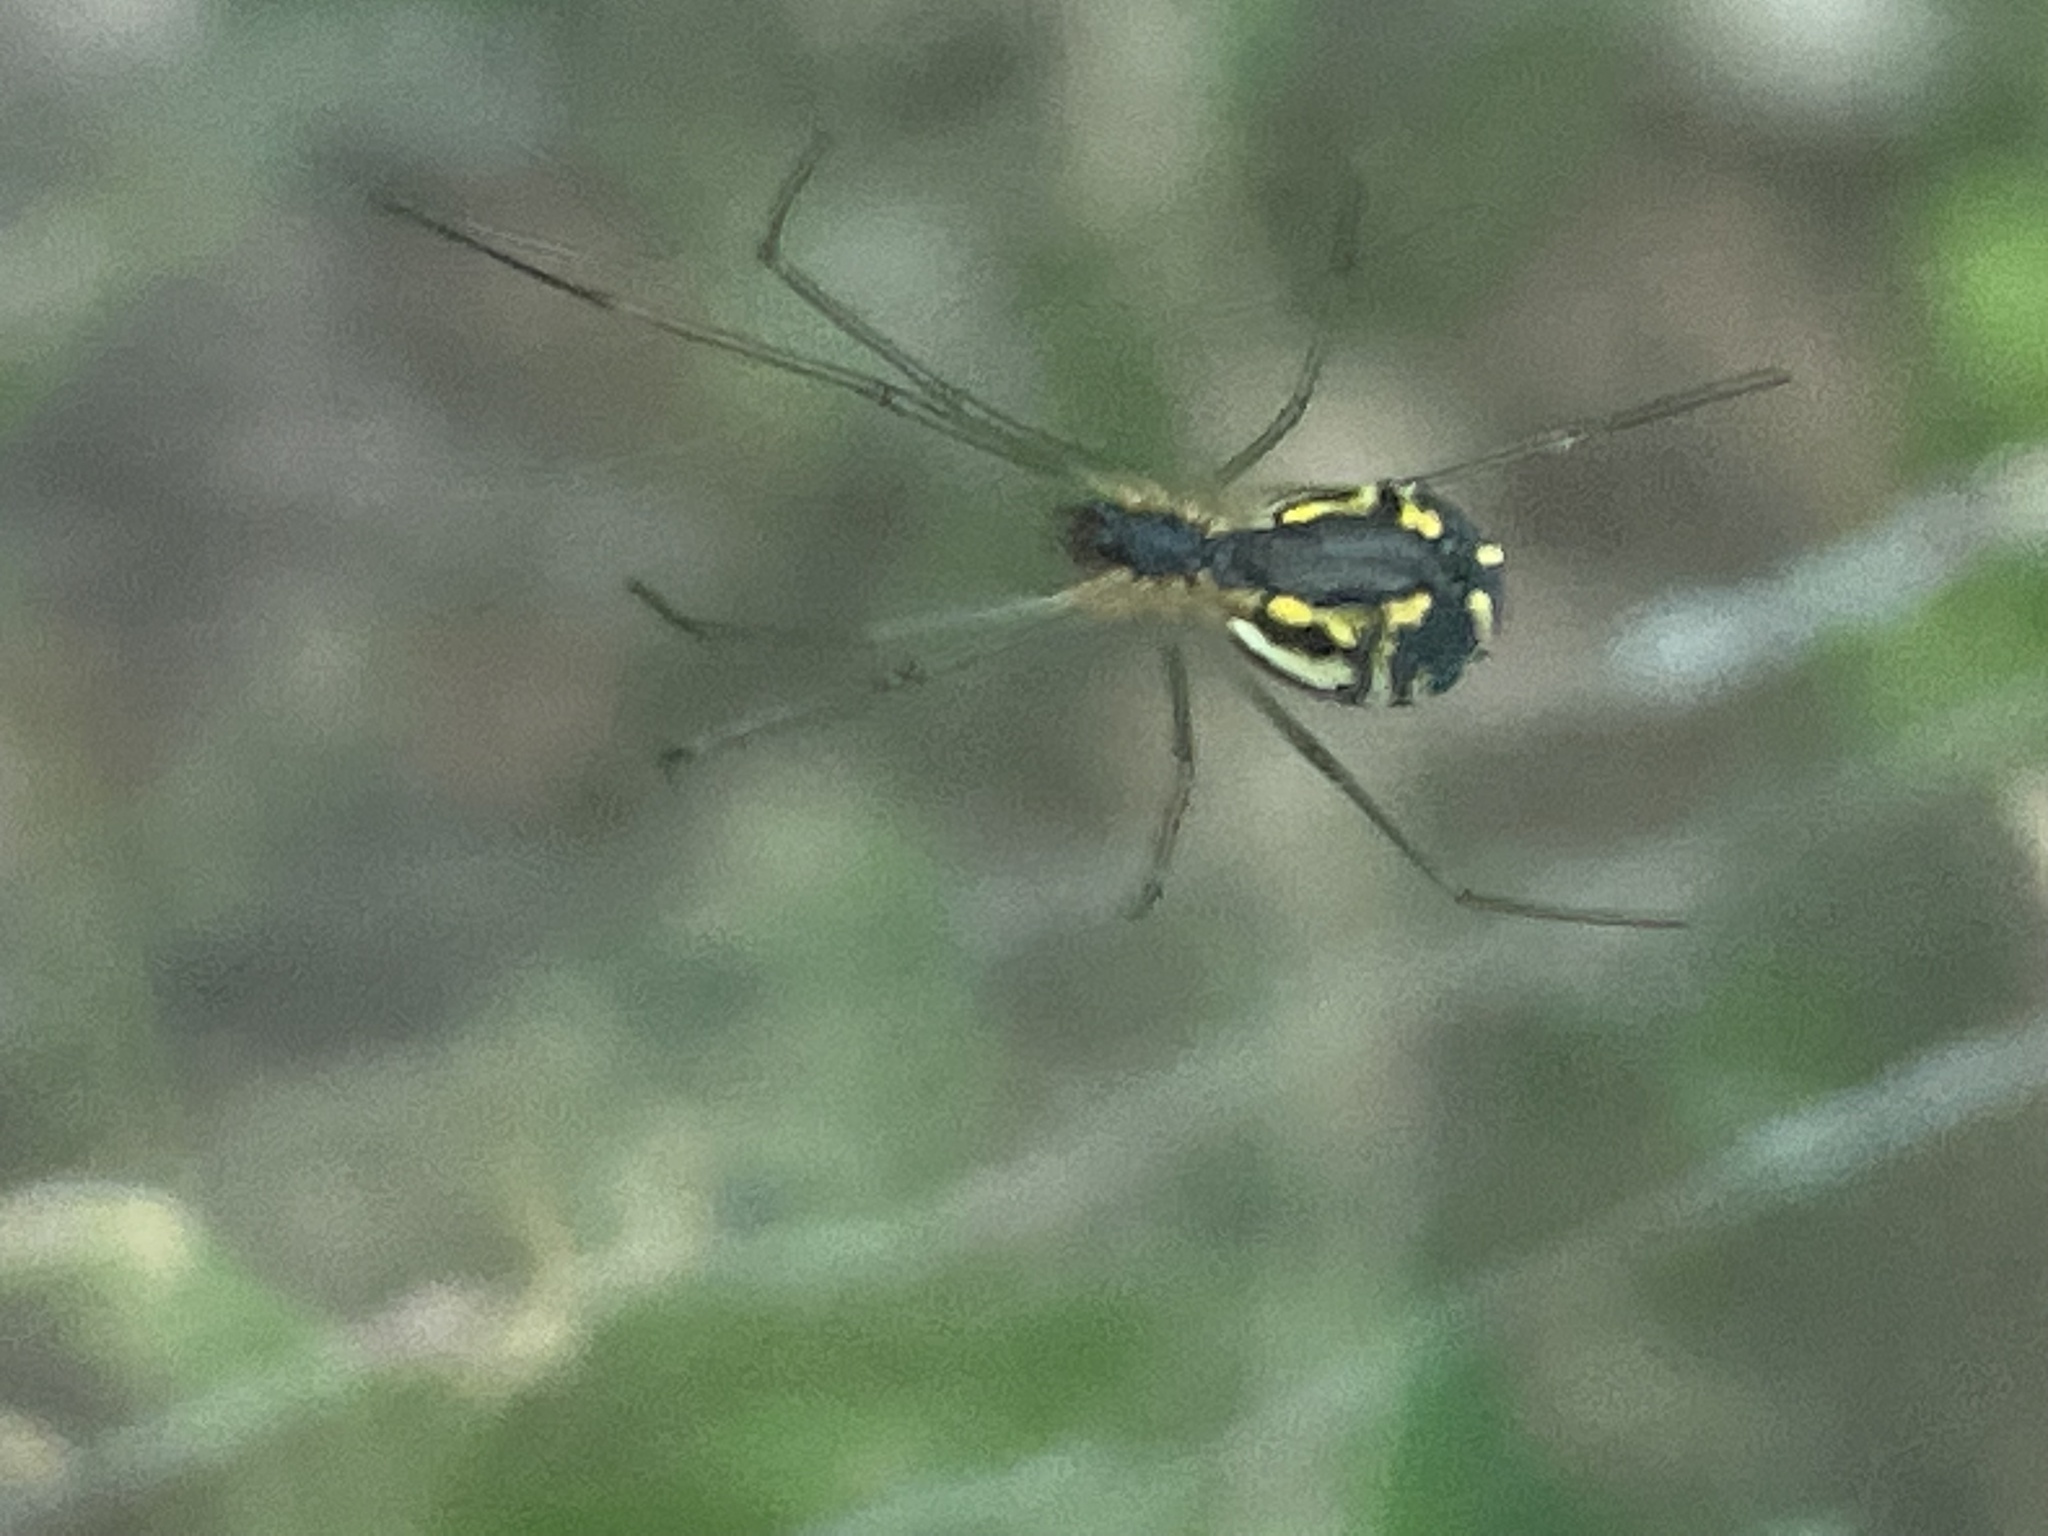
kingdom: Animalia
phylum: Arthropoda
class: Arachnida
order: Araneae
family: Linyphiidae
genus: Neriene
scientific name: Neriene radiata
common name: Filmy dome spider
